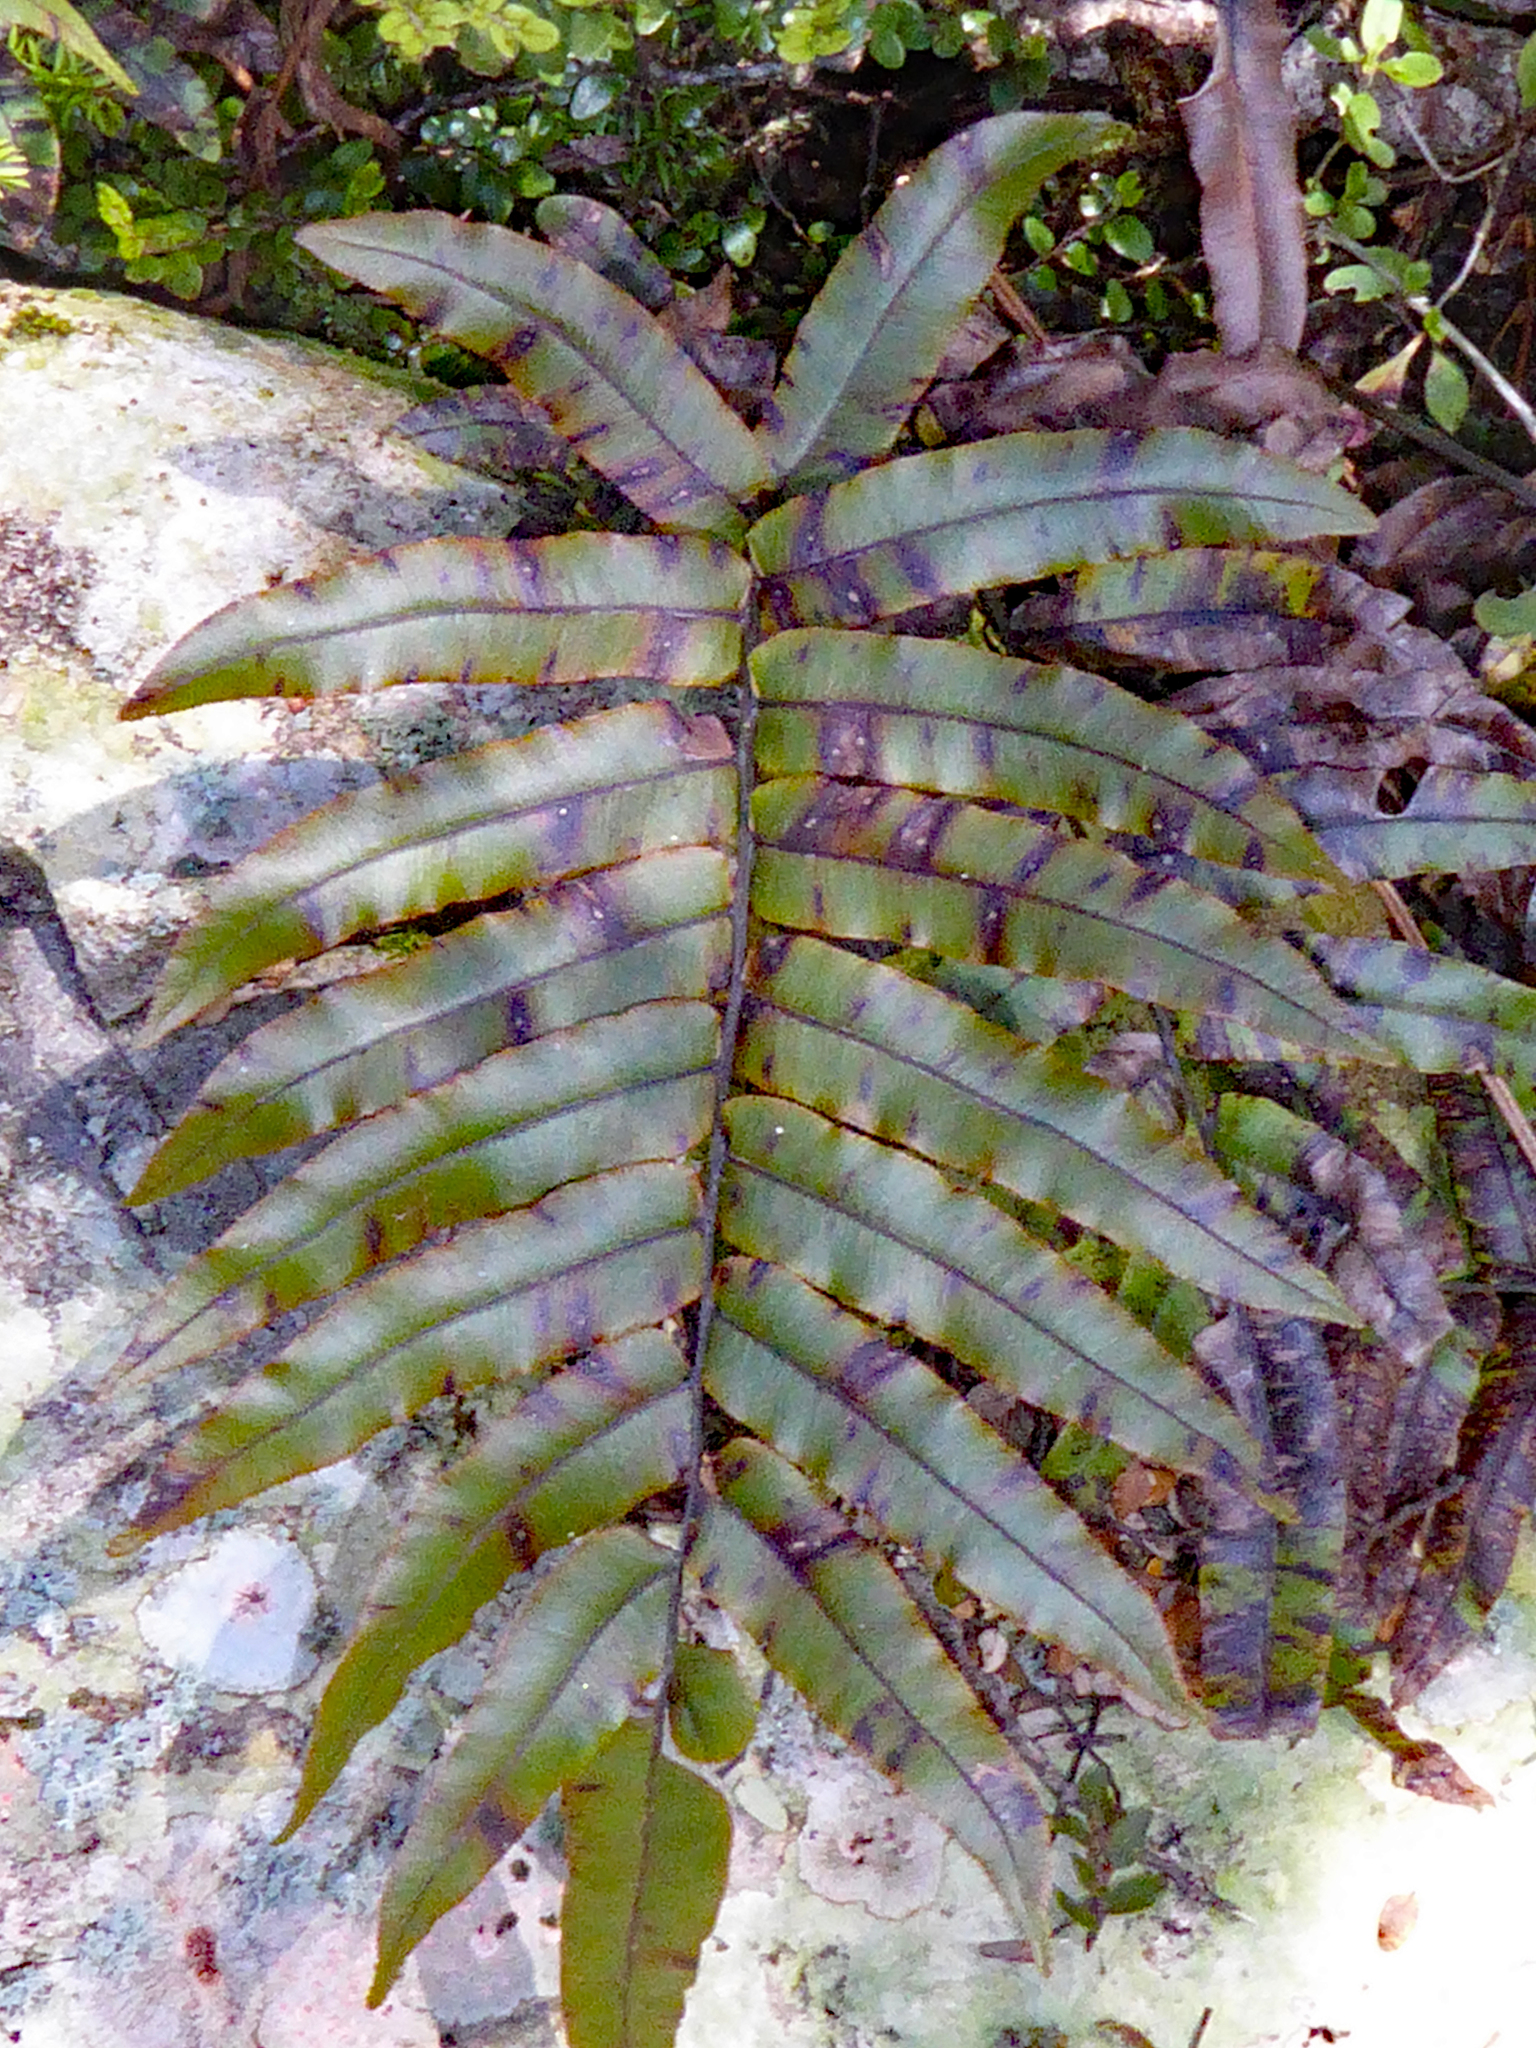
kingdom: Plantae
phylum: Tracheophyta
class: Polypodiopsida
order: Polypodiales
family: Blechnaceae
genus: Parablechnum
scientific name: Parablechnum montanum
